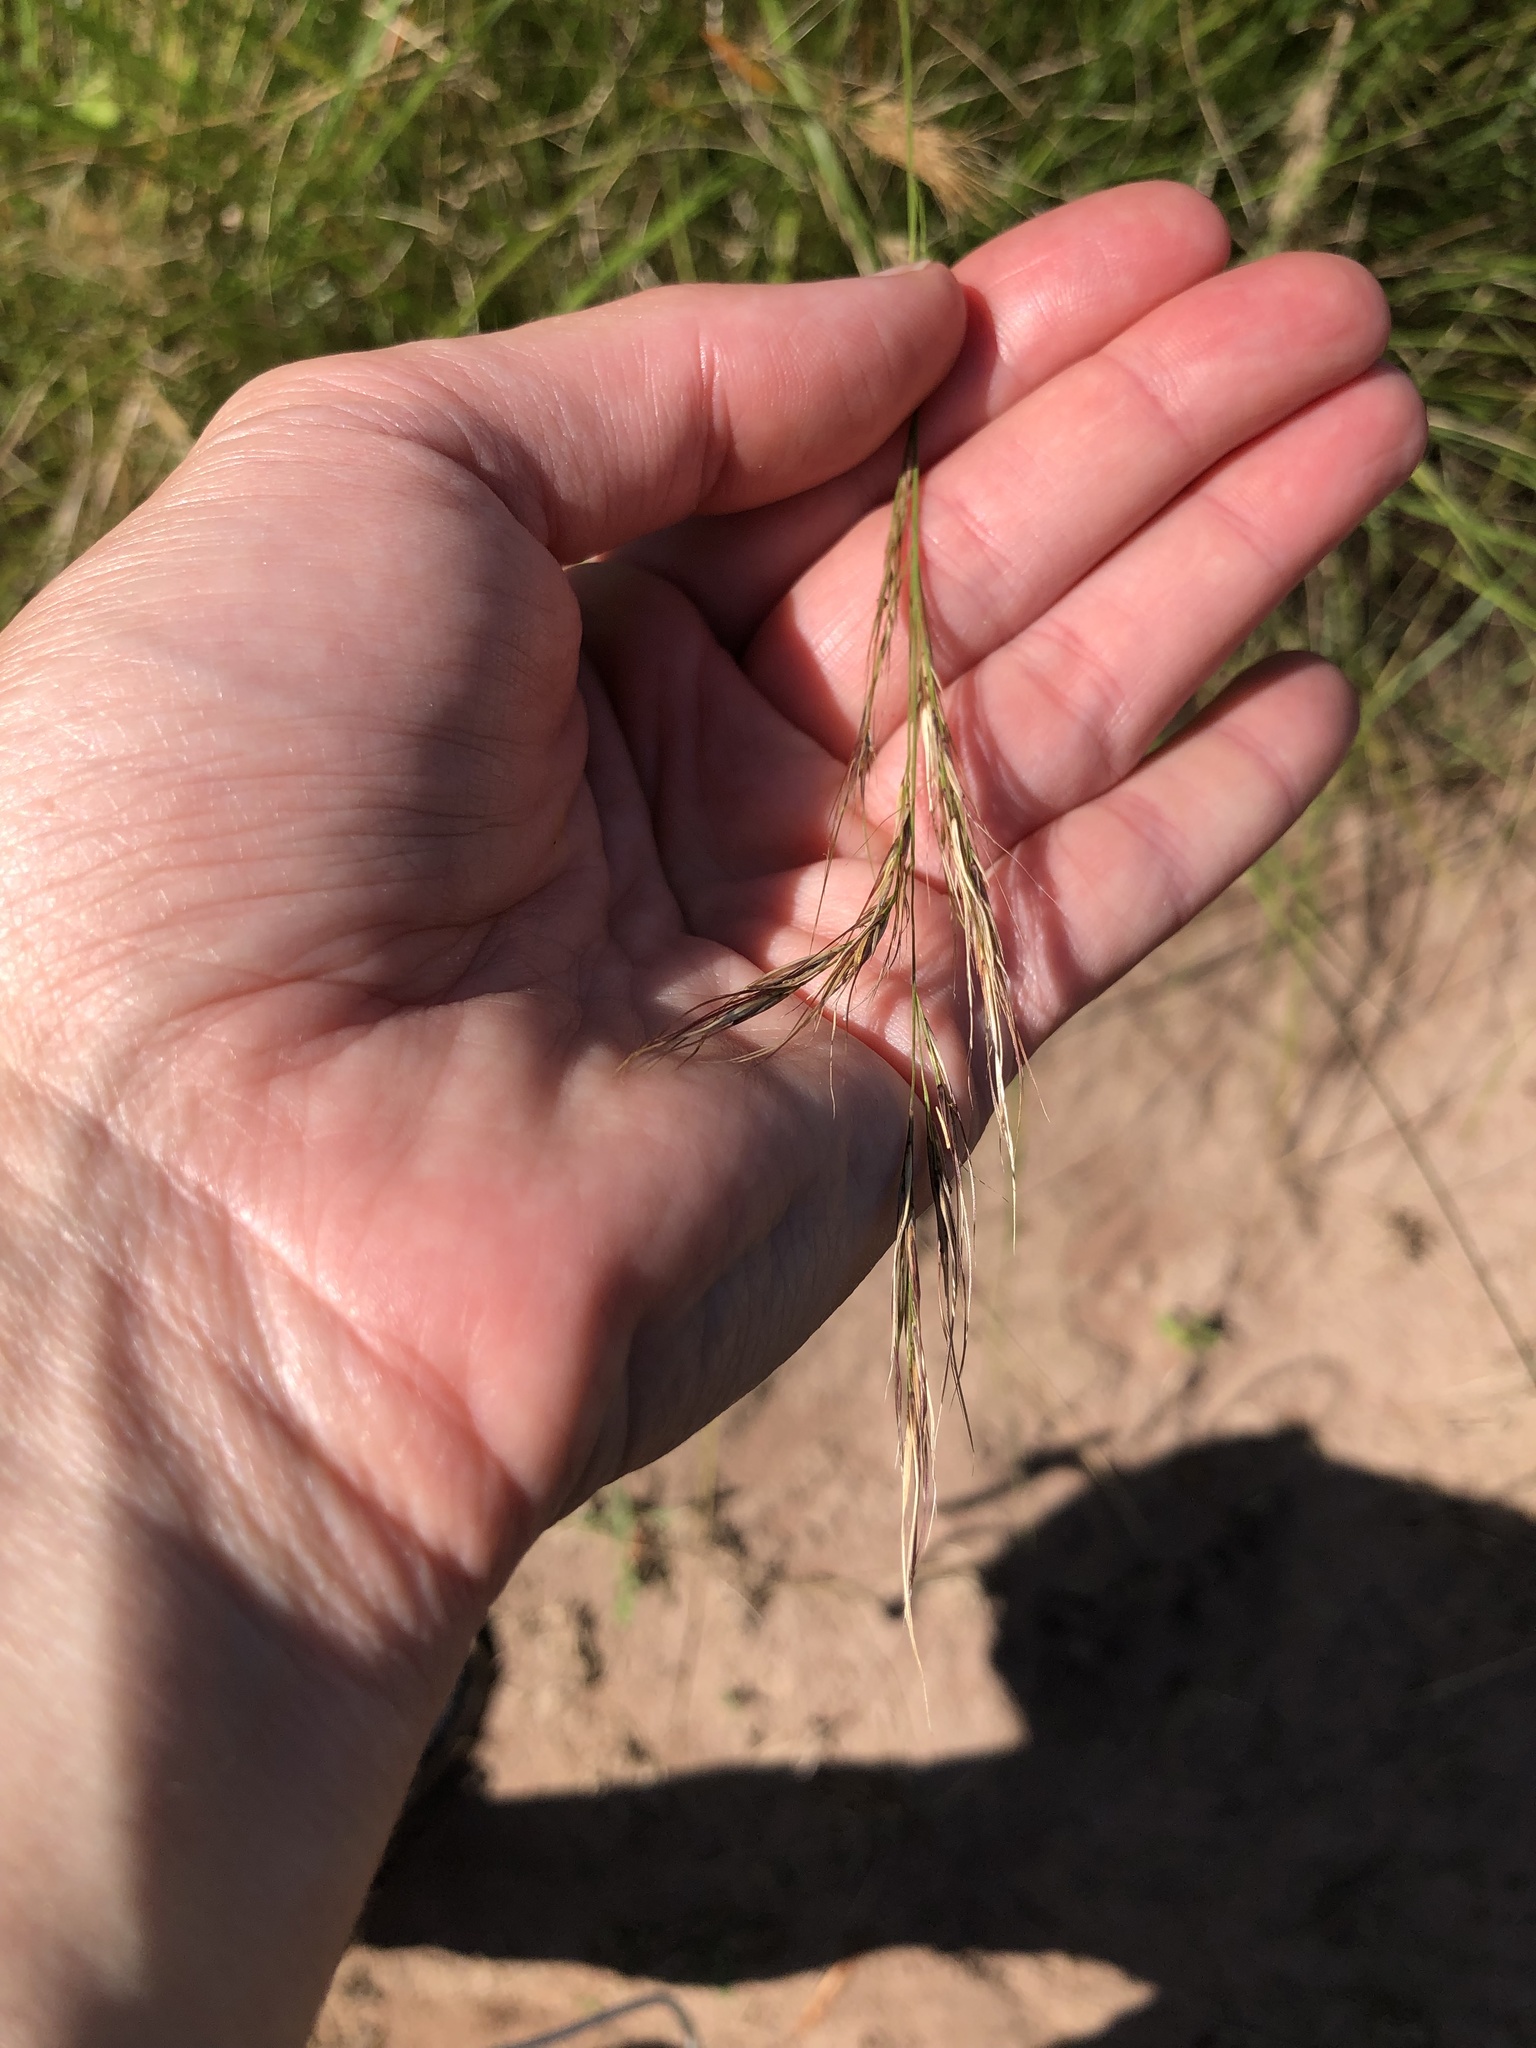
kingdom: Plantae
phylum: Tracheophyta
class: Liliopsida
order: Poales
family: Poaceae
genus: Aristida
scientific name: Aristida junciformis
